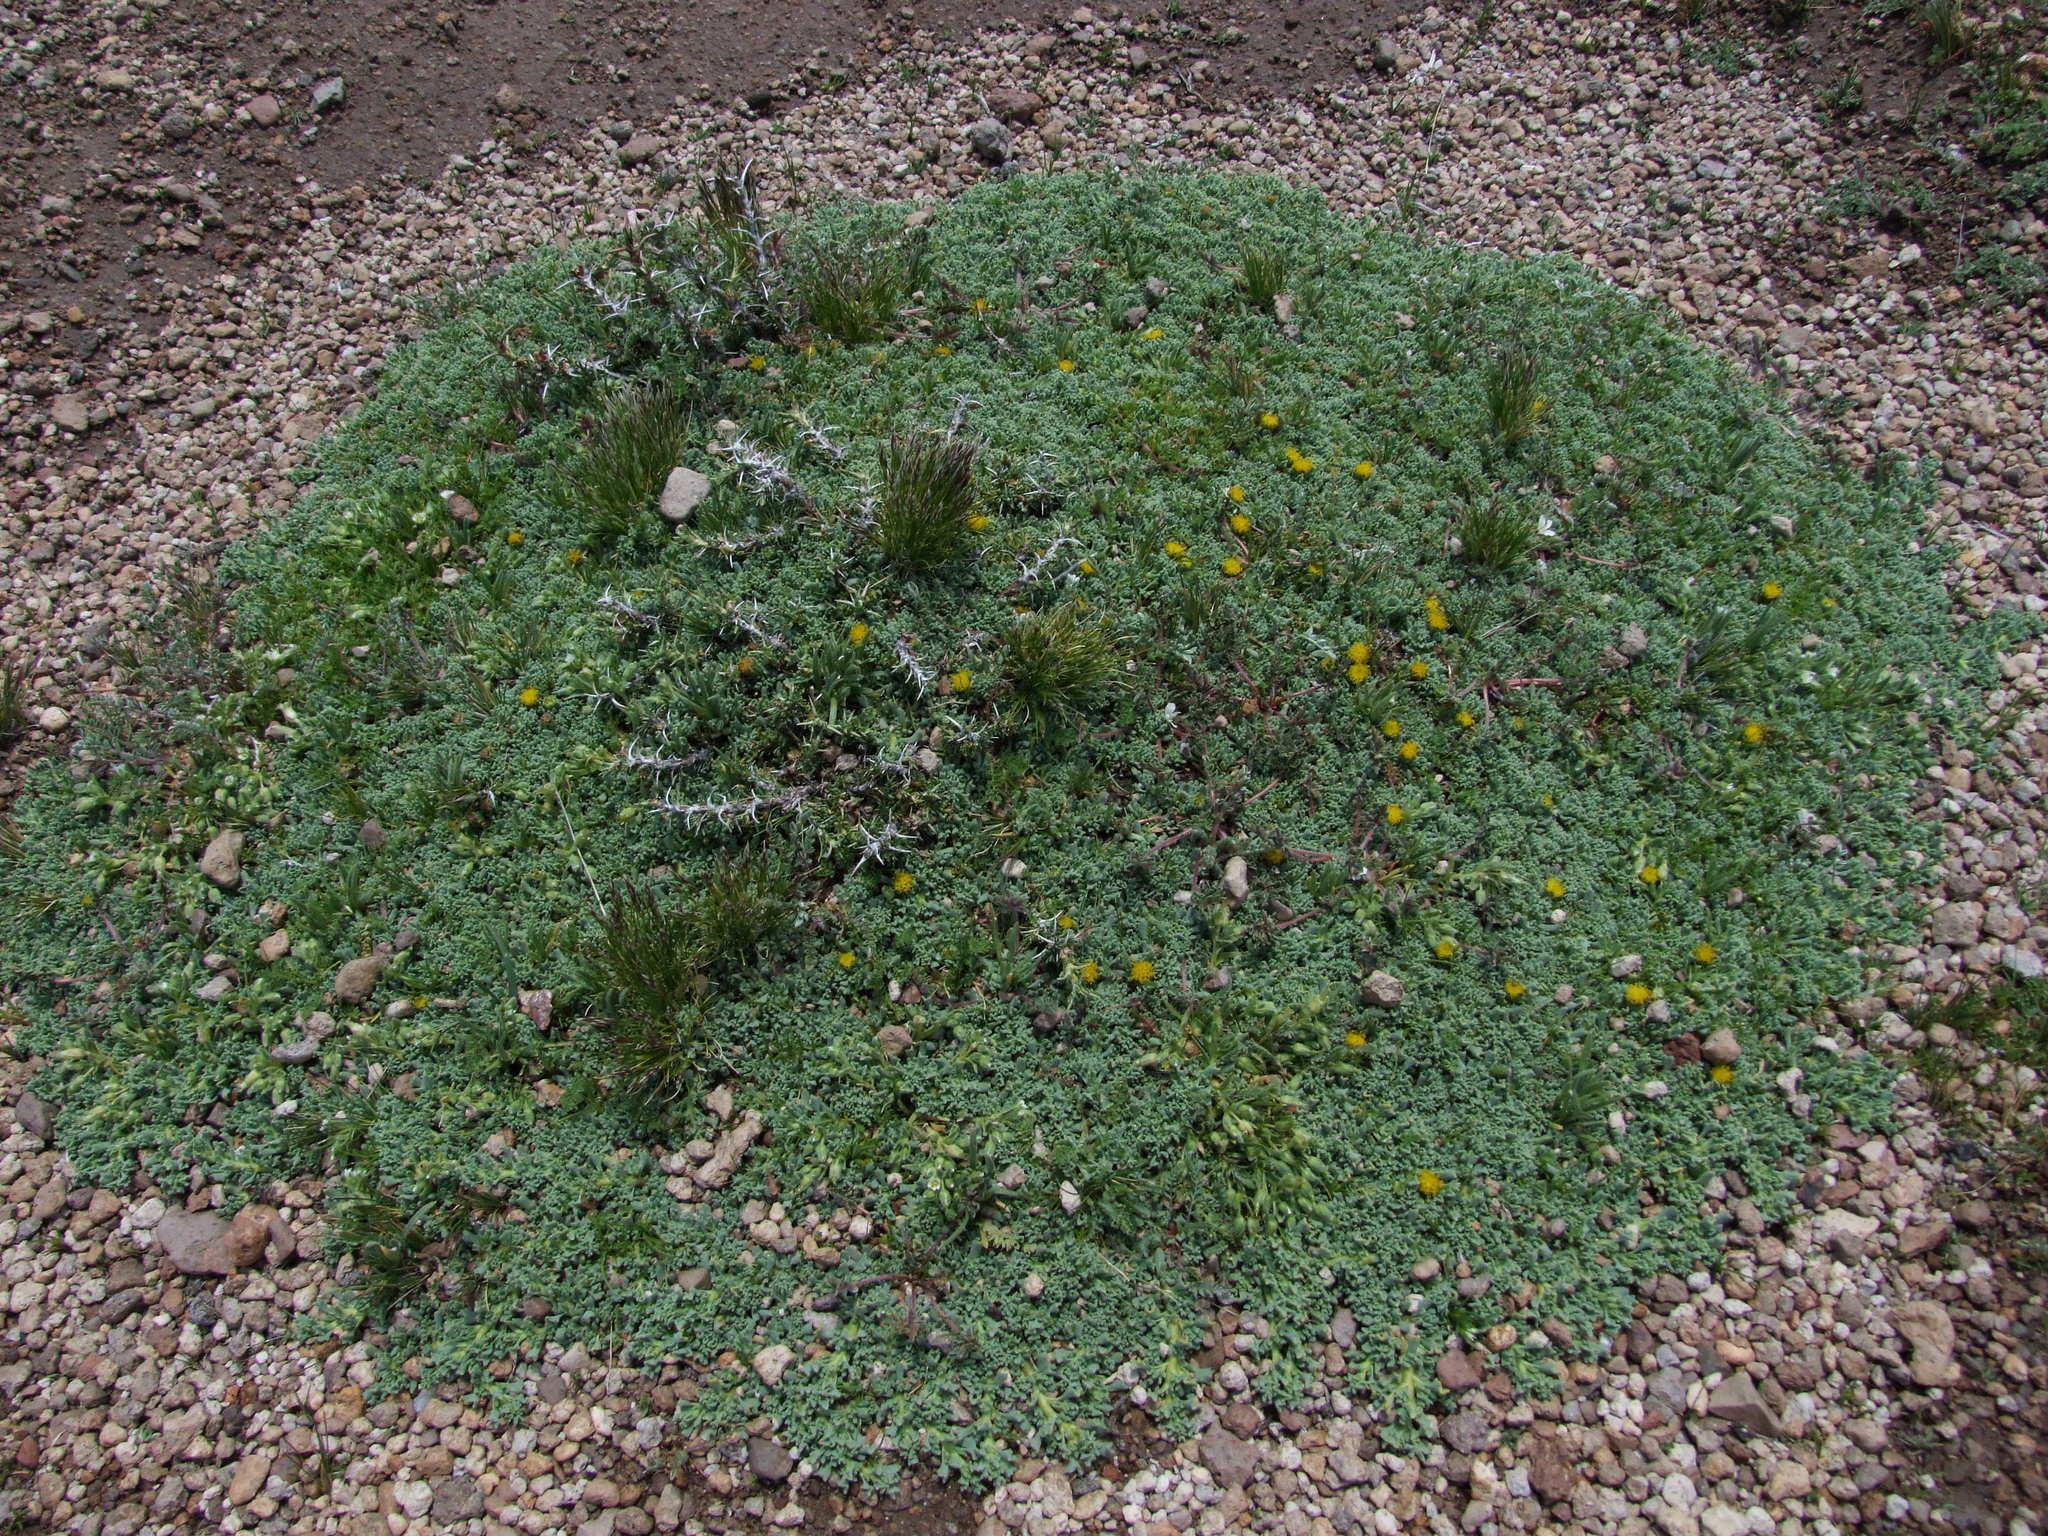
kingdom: Plantae
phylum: Tracheophyta
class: Magnoliopsida
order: Asterales
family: Asteraceae
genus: Senecio
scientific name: Senecio moqueguensis
